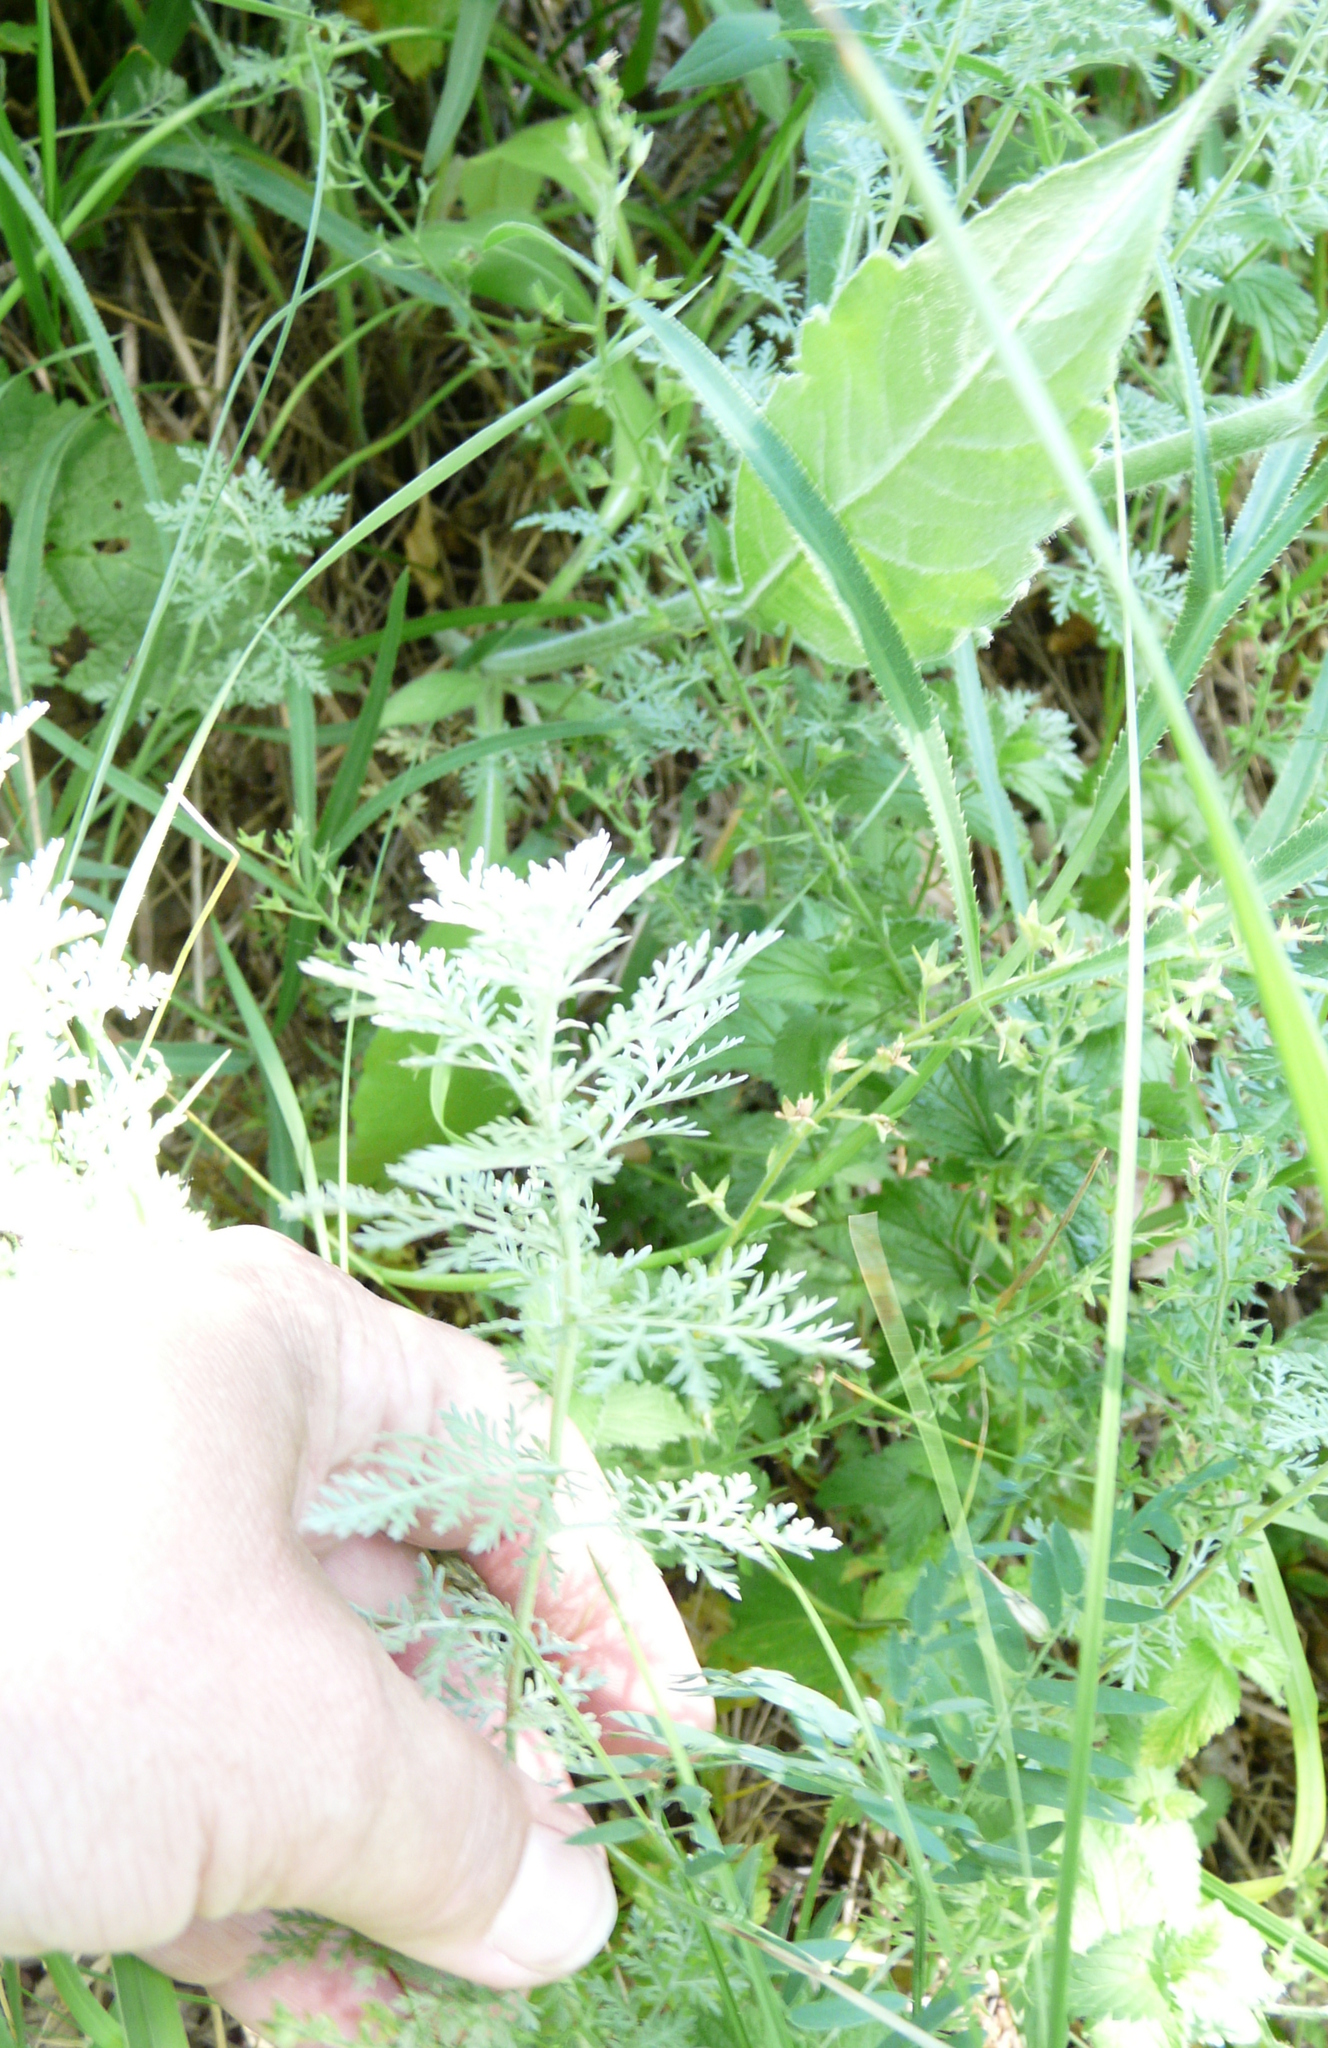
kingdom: Plantae
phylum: Tracheophyta
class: Magnoliopsida
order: Asterales
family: Asteraceae
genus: Artemisia
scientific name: Artemisia pontica
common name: Roman wormwood
